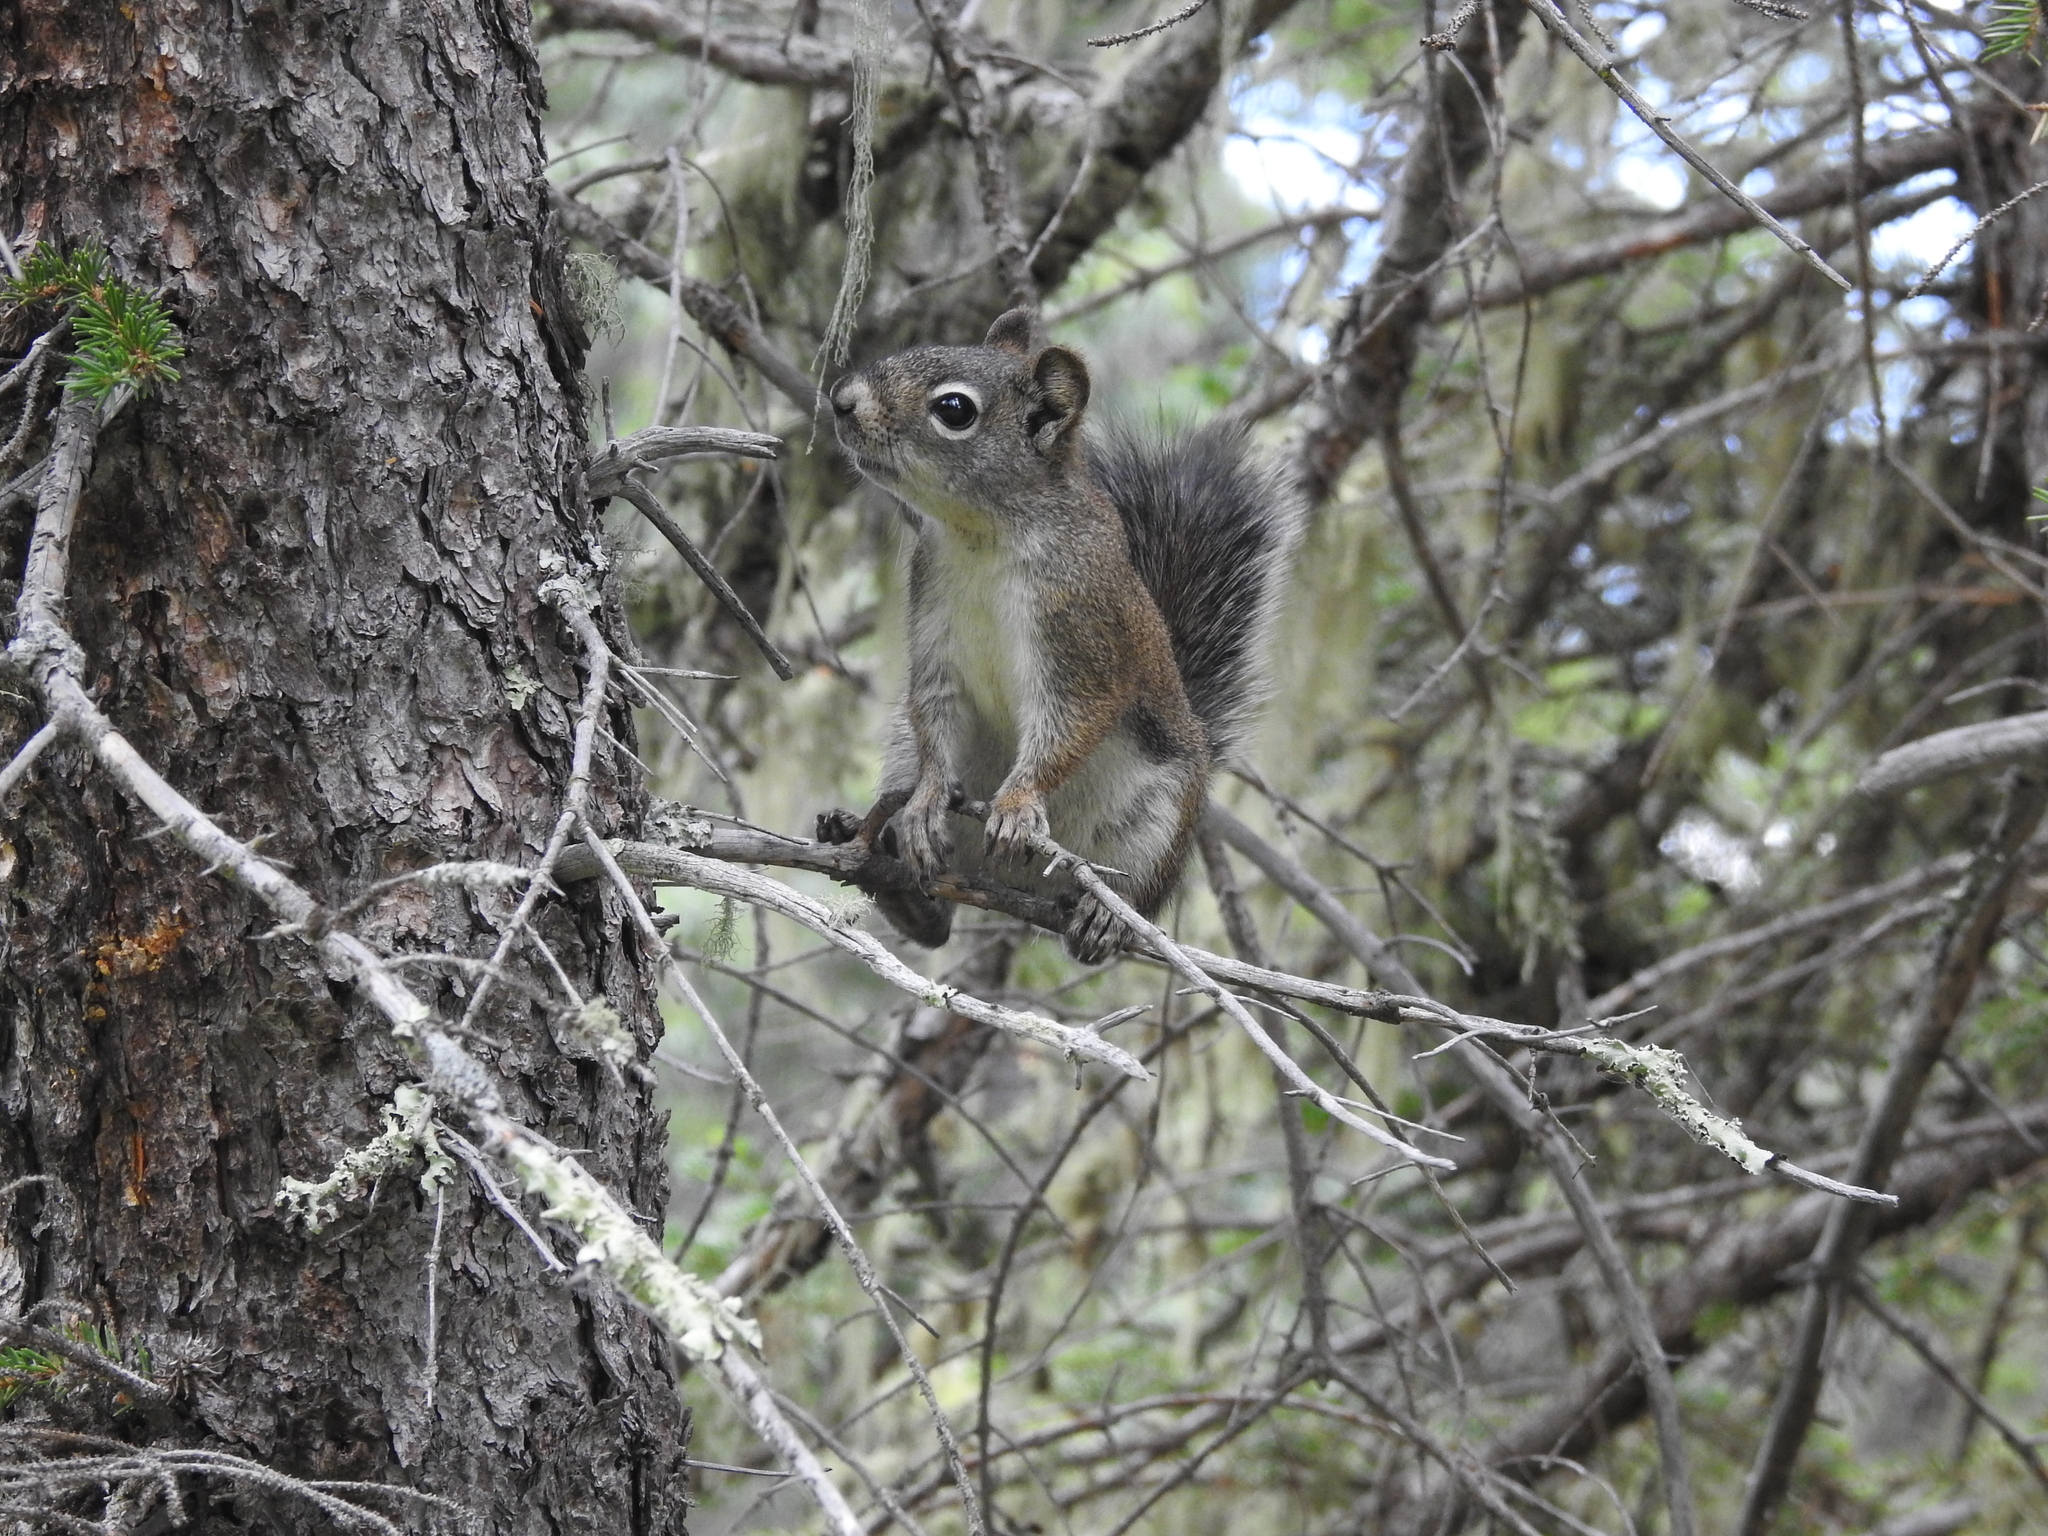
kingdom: Animalia
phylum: Chordata
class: Mammalia
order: Rodentia
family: Sciuridae
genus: Tamiasciurus
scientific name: Tamiasciurus hudsonicus
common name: Red squirrel
